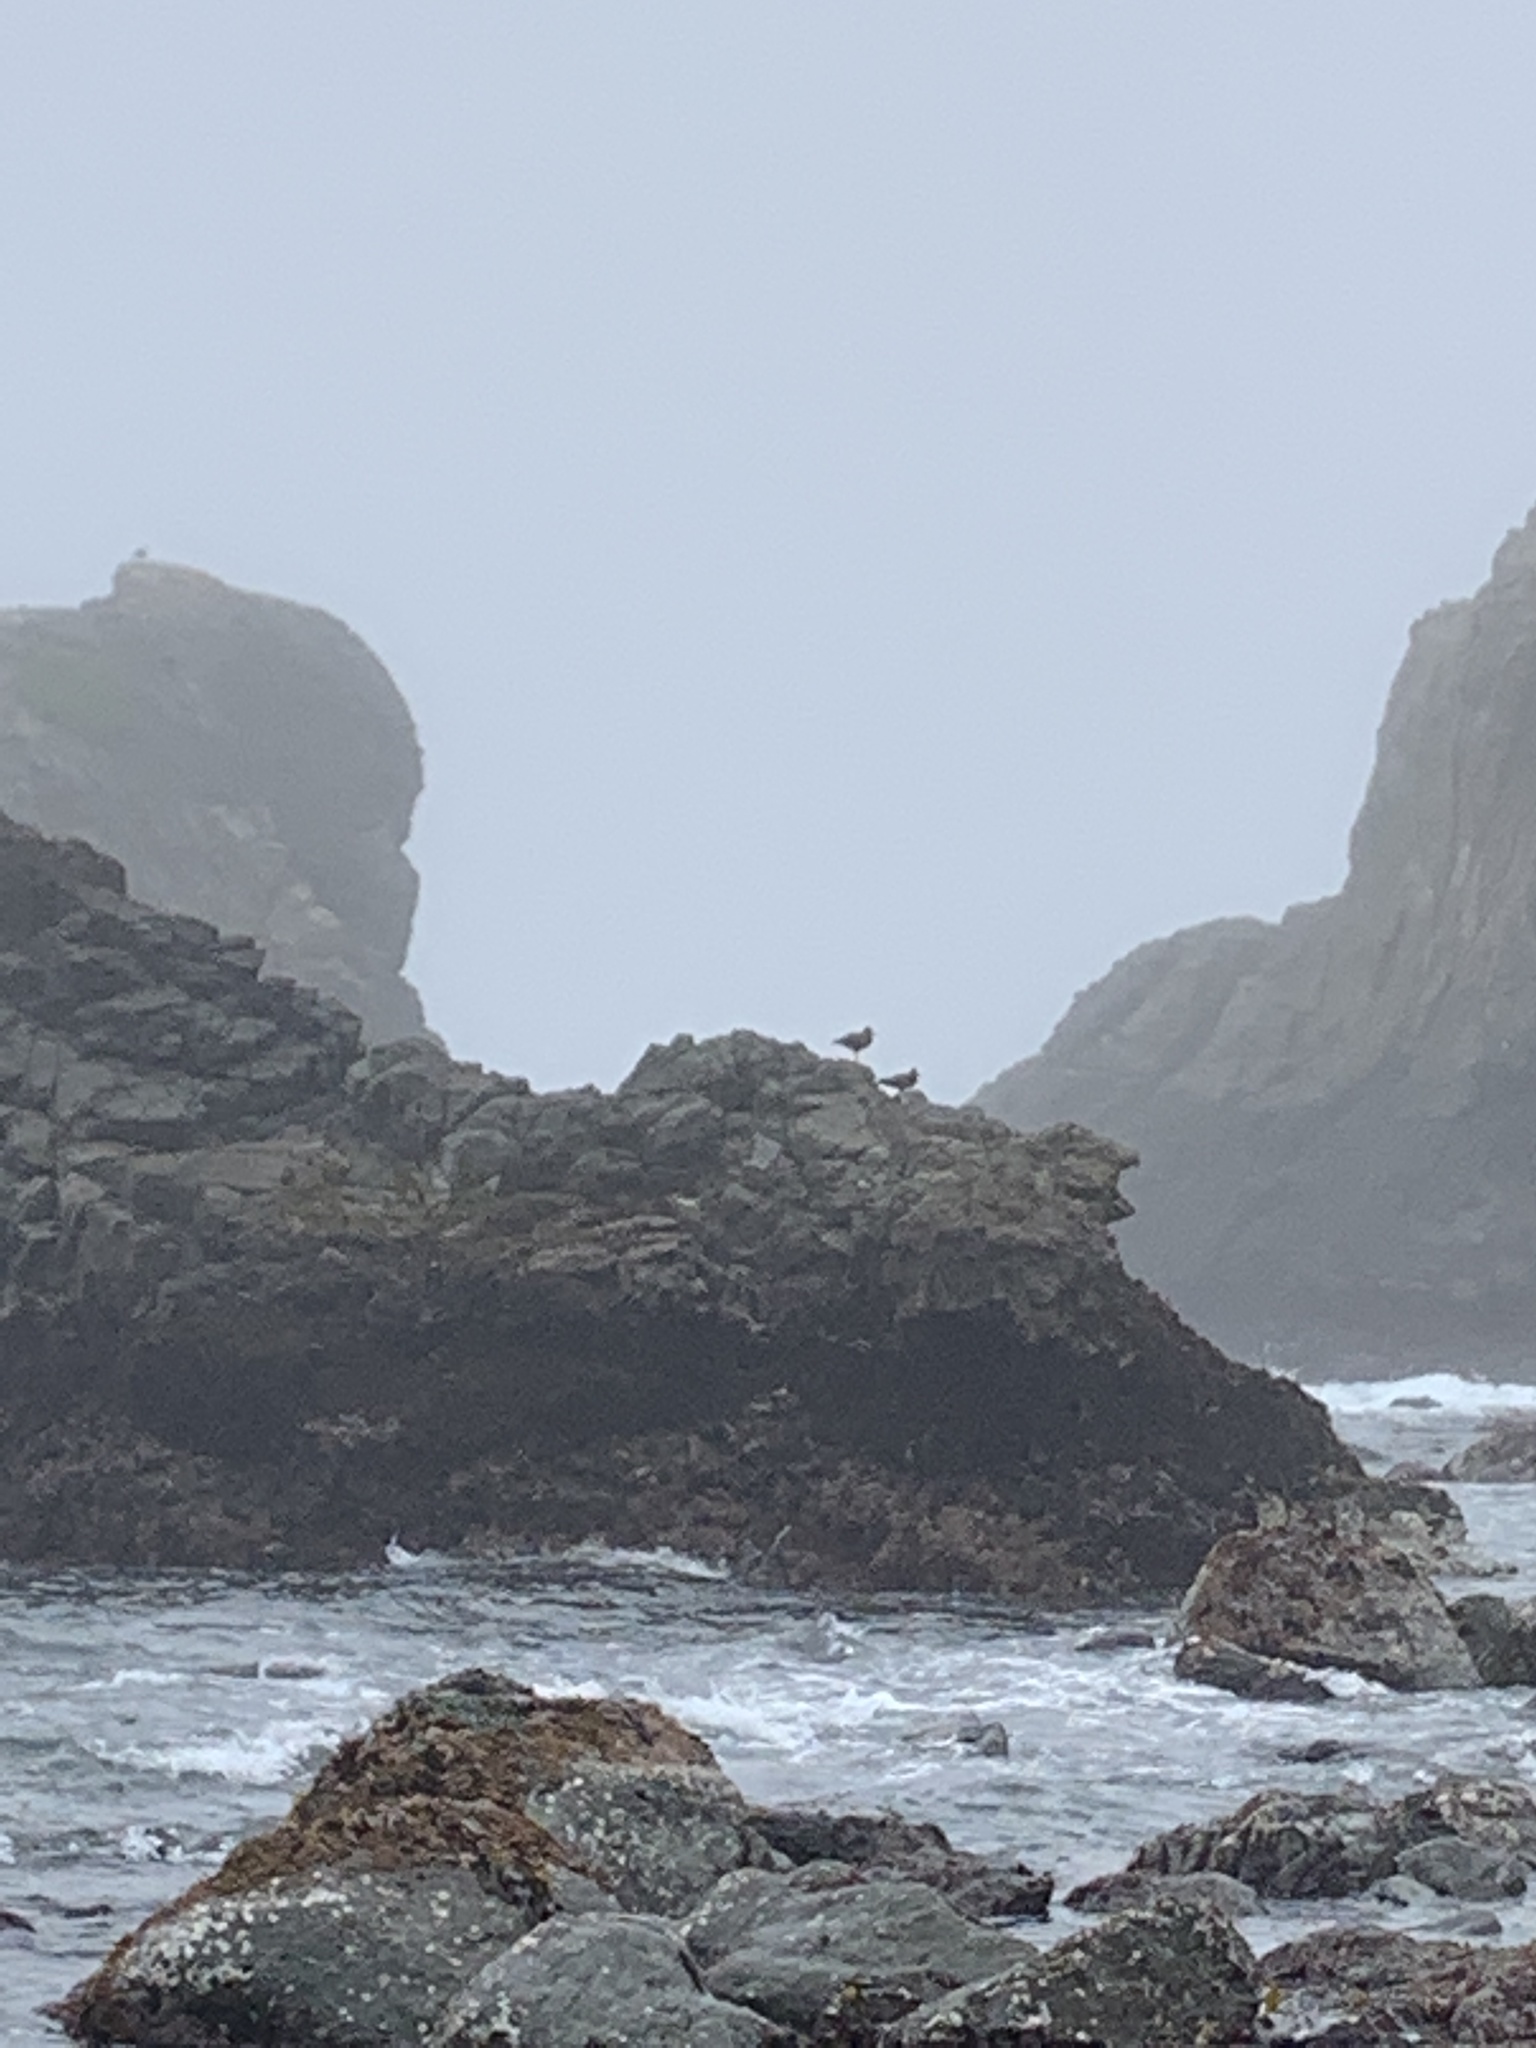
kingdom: Animalia
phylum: Chordata
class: Aves
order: Charadriiformes
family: Haematopodidae
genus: Haematopus
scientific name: Haematopus bachmani
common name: Black oystercatcher
